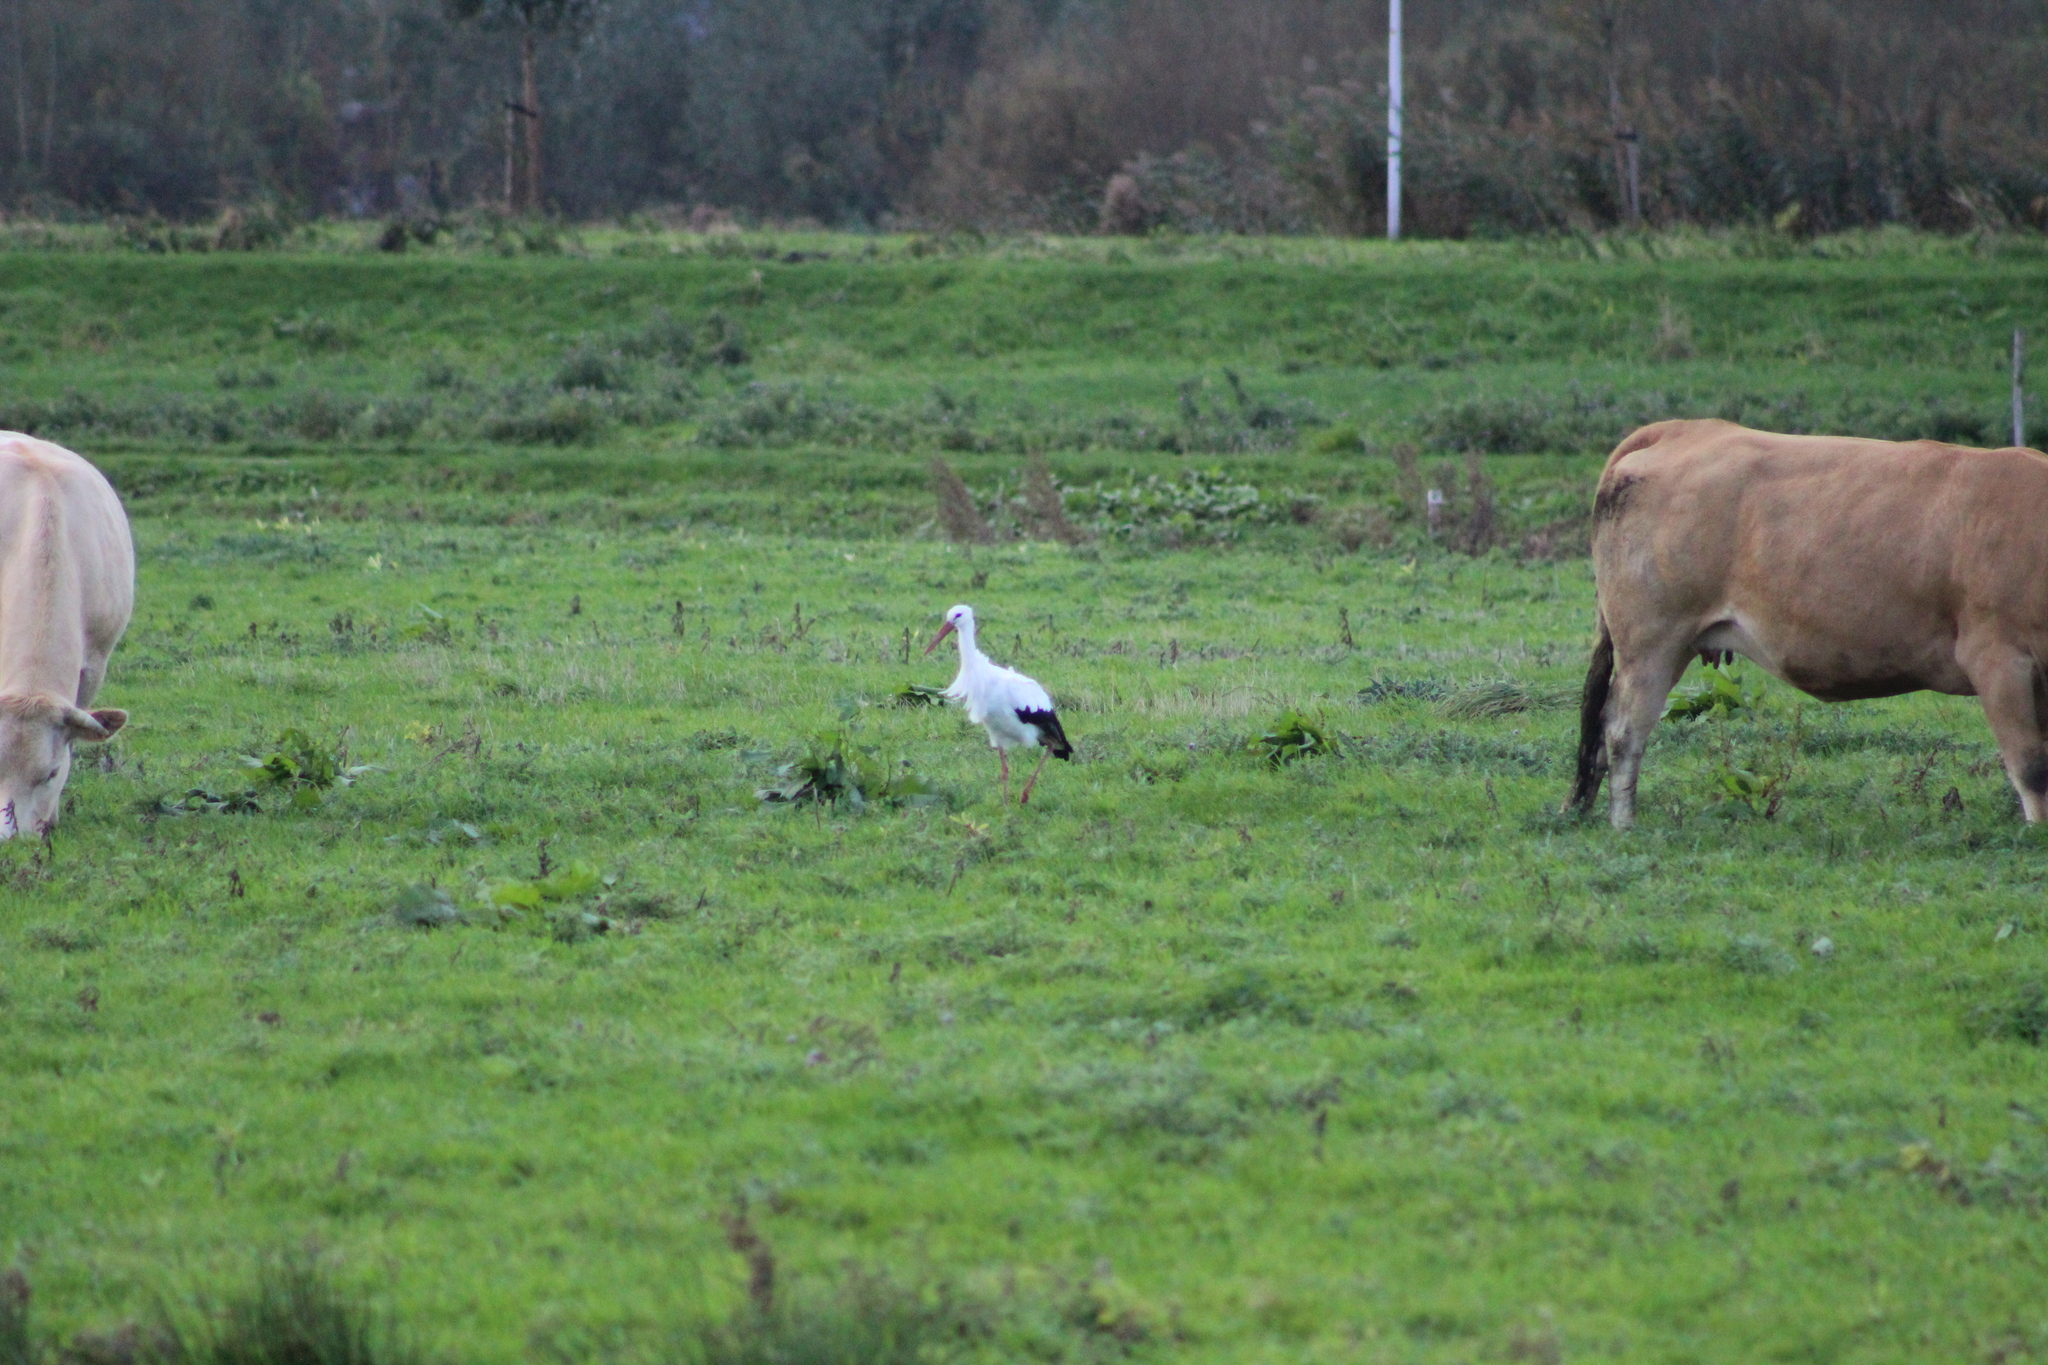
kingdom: Animalia
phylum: Chordata
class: Aves
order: Ciconiiformes
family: Ciconiidae
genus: Ciconia
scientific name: Ciconia ciconia
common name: White stork
